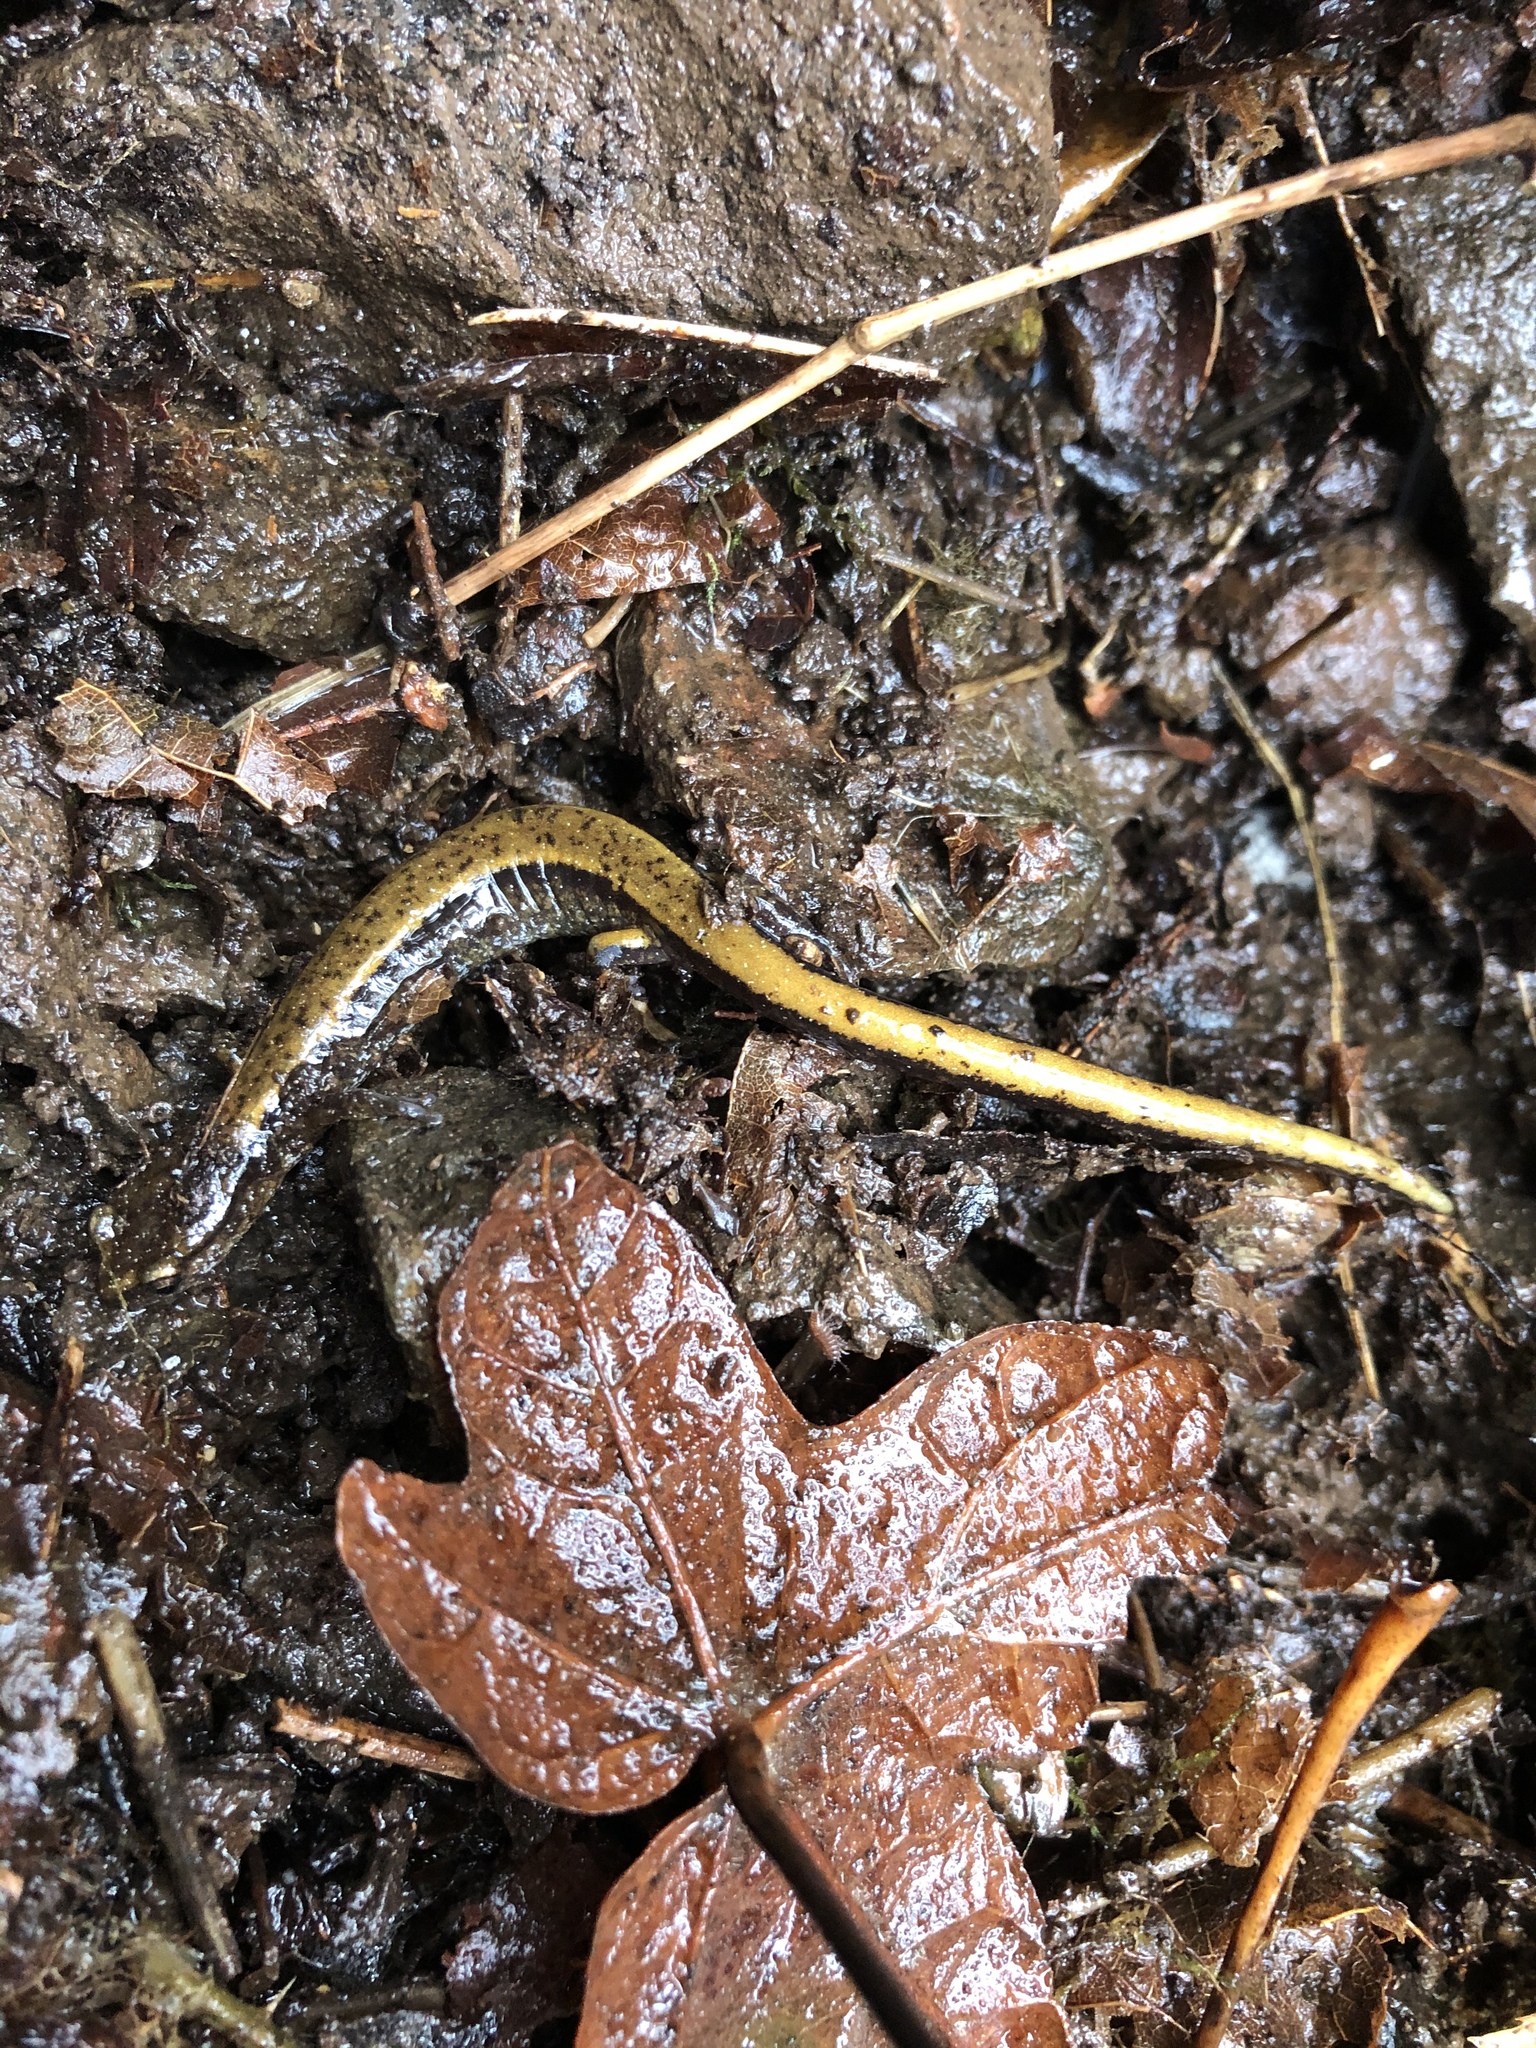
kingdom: Animalia
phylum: Chordata
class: Amphibia
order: Caudata
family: Plethodontidae
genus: Plethodon
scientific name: Plethodon dunni
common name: Dunn's salamander
